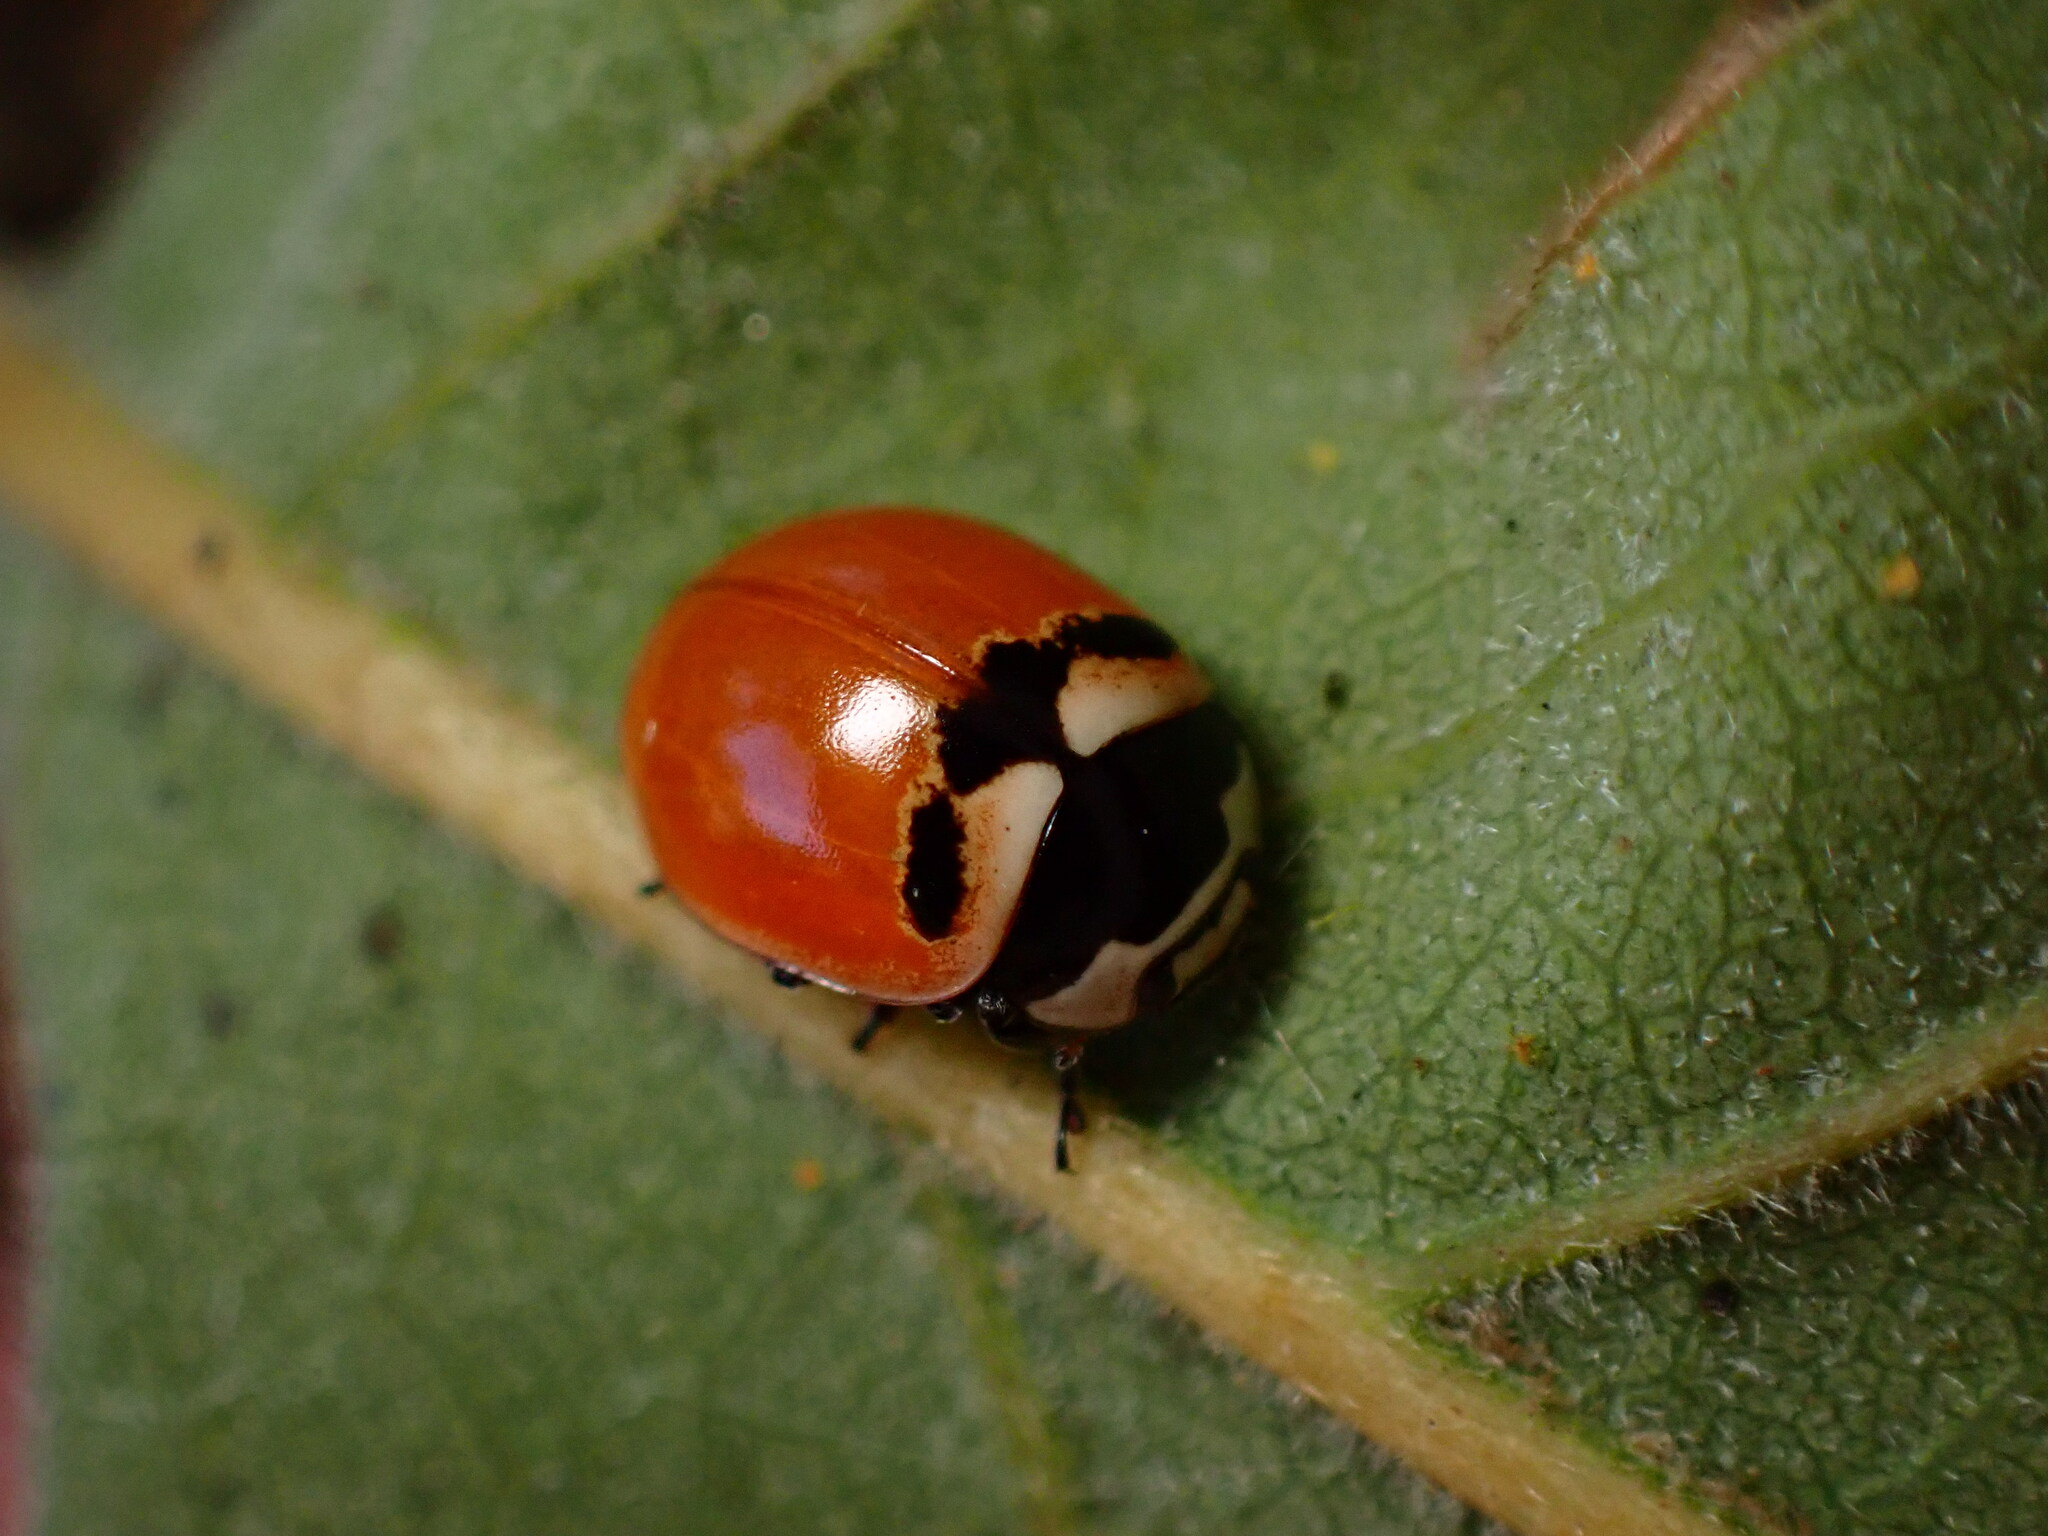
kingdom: Animalia
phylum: Arthropoda
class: Insecta
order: Coleoptera
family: Coccinellidae
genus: Coccinella
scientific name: Coccinella trifasciata
